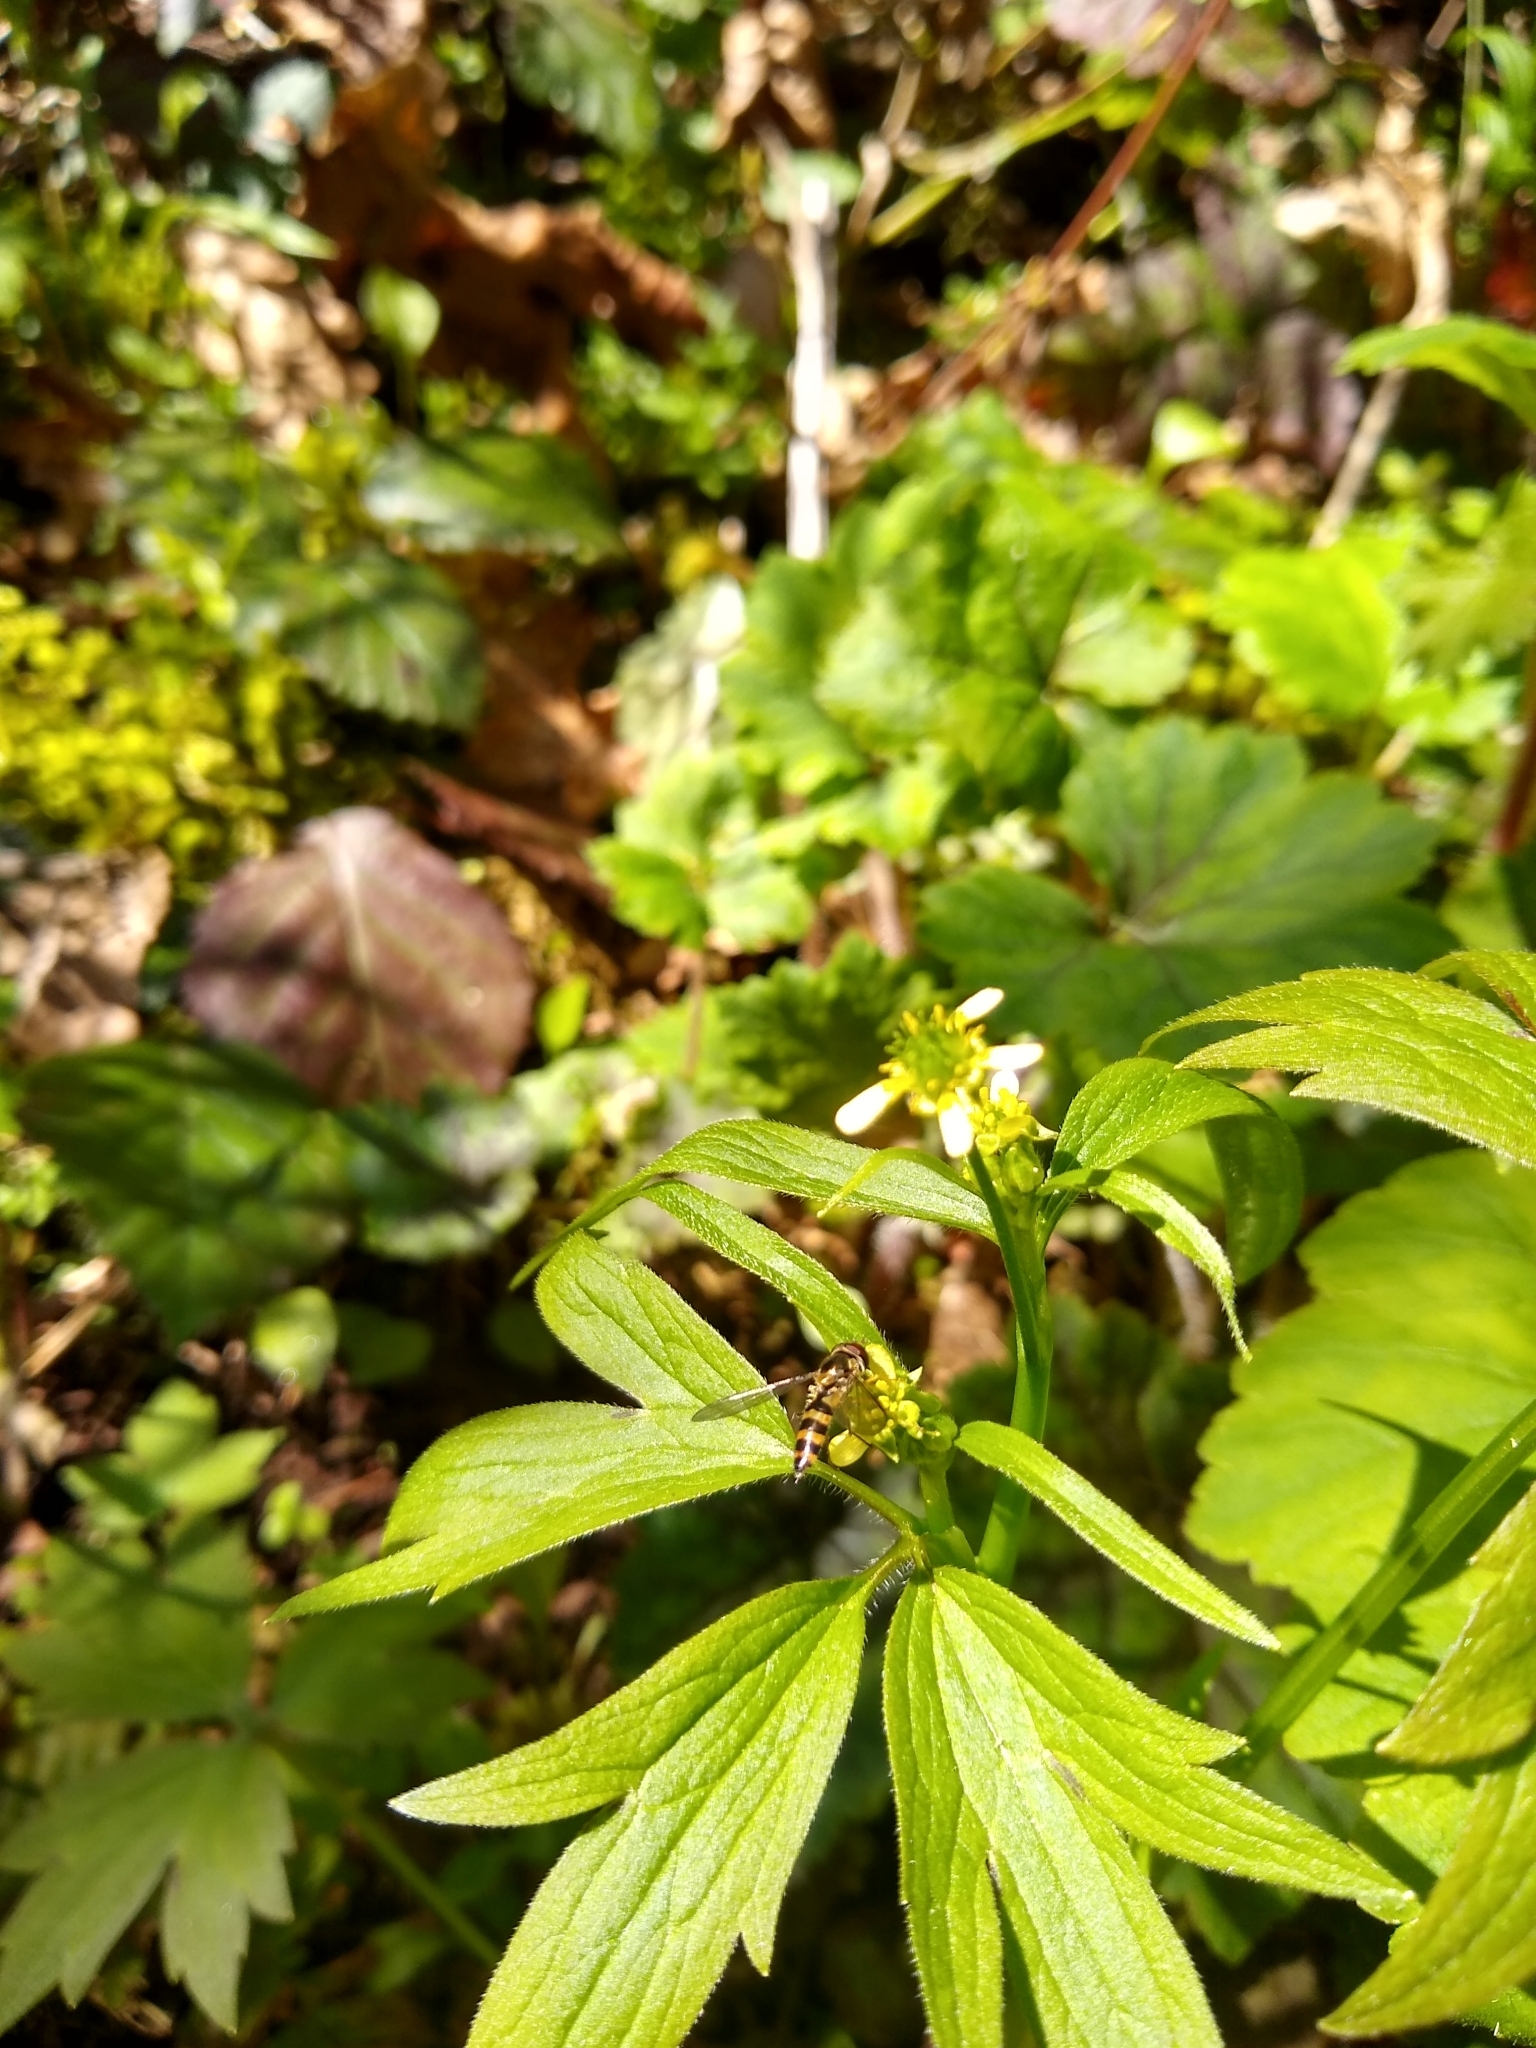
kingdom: Animalia
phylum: Arthropoda
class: Insecta
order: Diptera
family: Syrphidae
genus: Meliscaeva
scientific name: Meliscaeva cinctella
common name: American thintail fly
